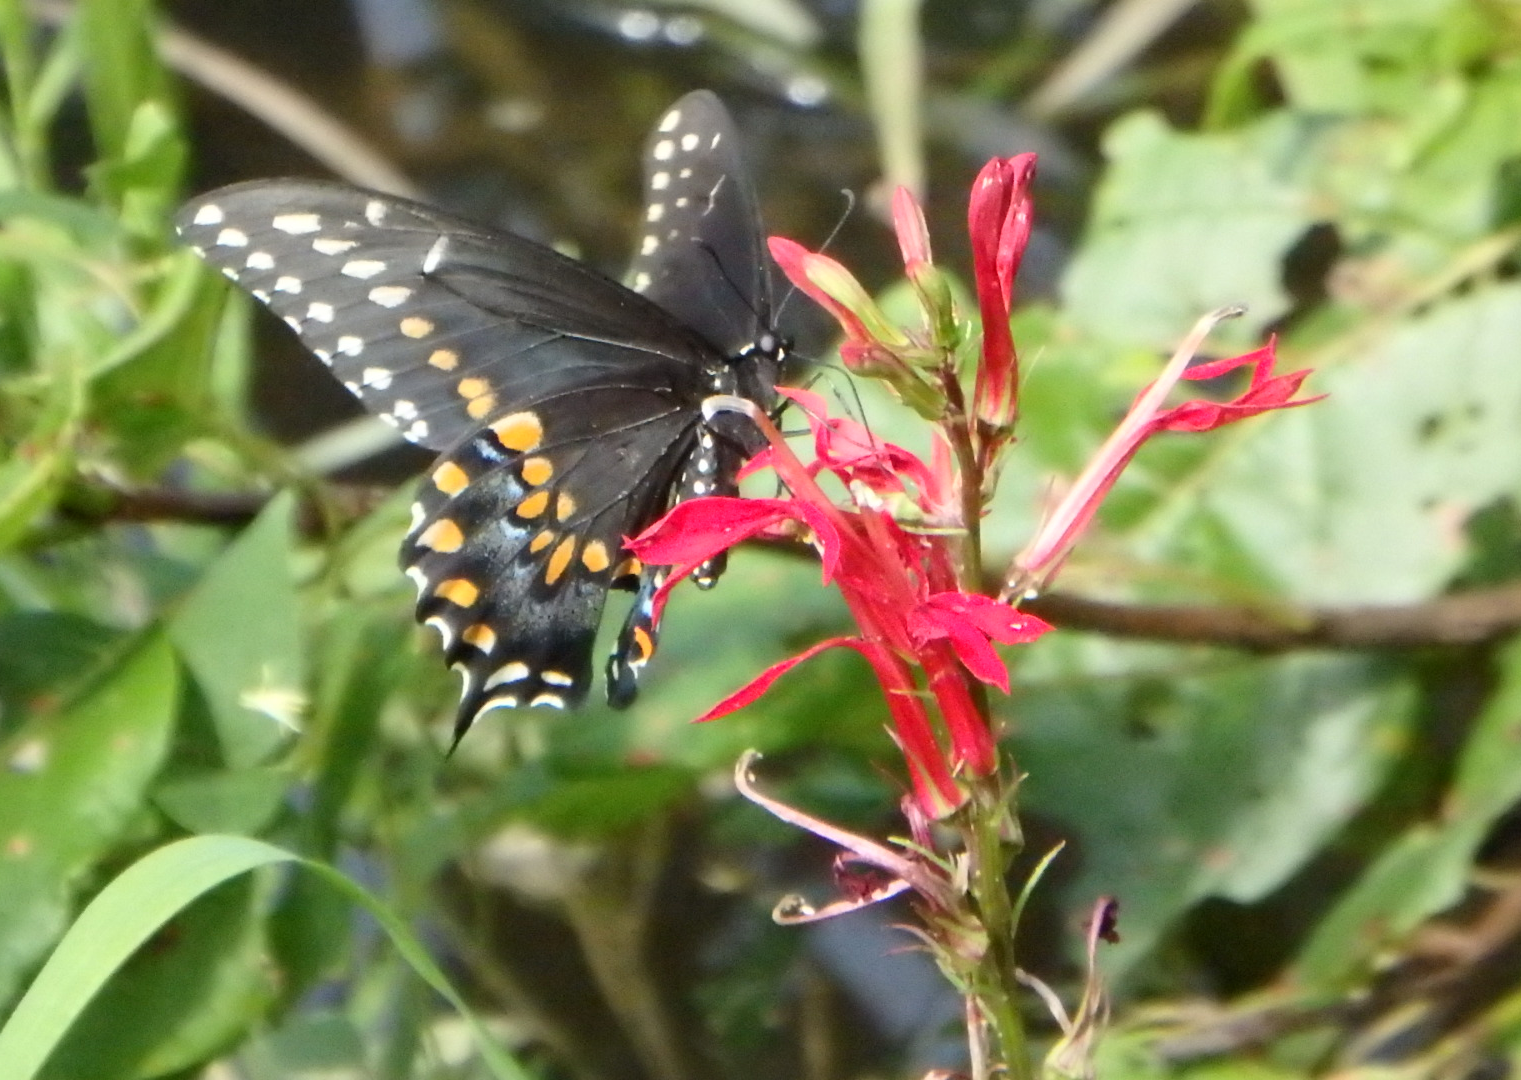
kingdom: Animalia
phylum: Arthropoda
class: Insecta
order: Lepidoptera
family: Papilionidae
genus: Papilio
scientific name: Papilio polyxenes
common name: Black swallowtail
